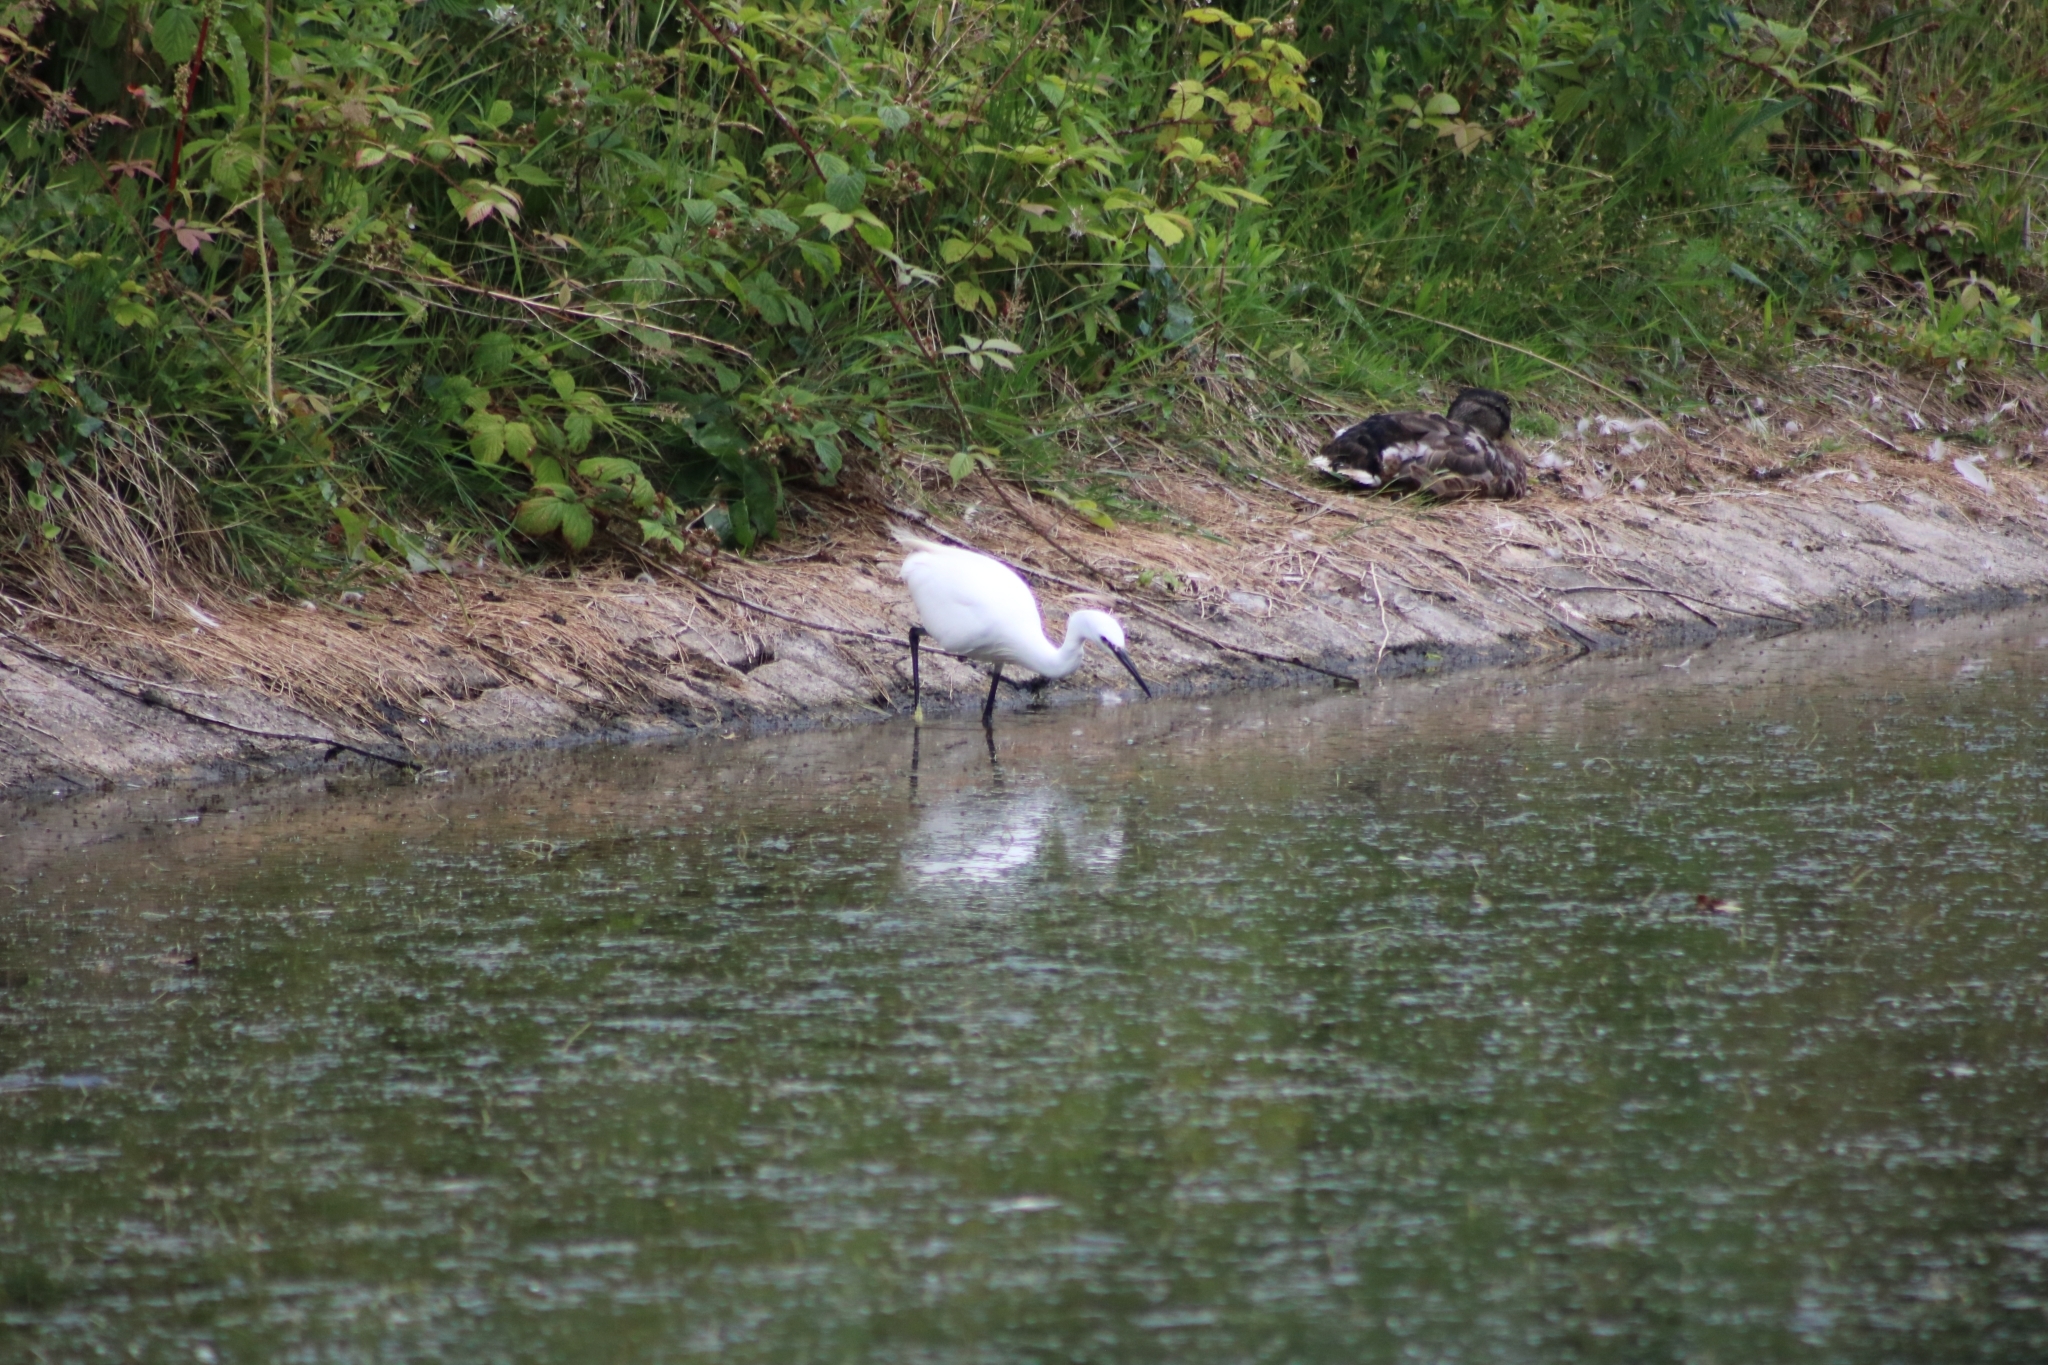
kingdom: Animalia
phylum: Chordata
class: Aves
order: Pelecaniformes
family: Ardeidae
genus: Egretta
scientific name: Egretta garzetta
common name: Little egret
